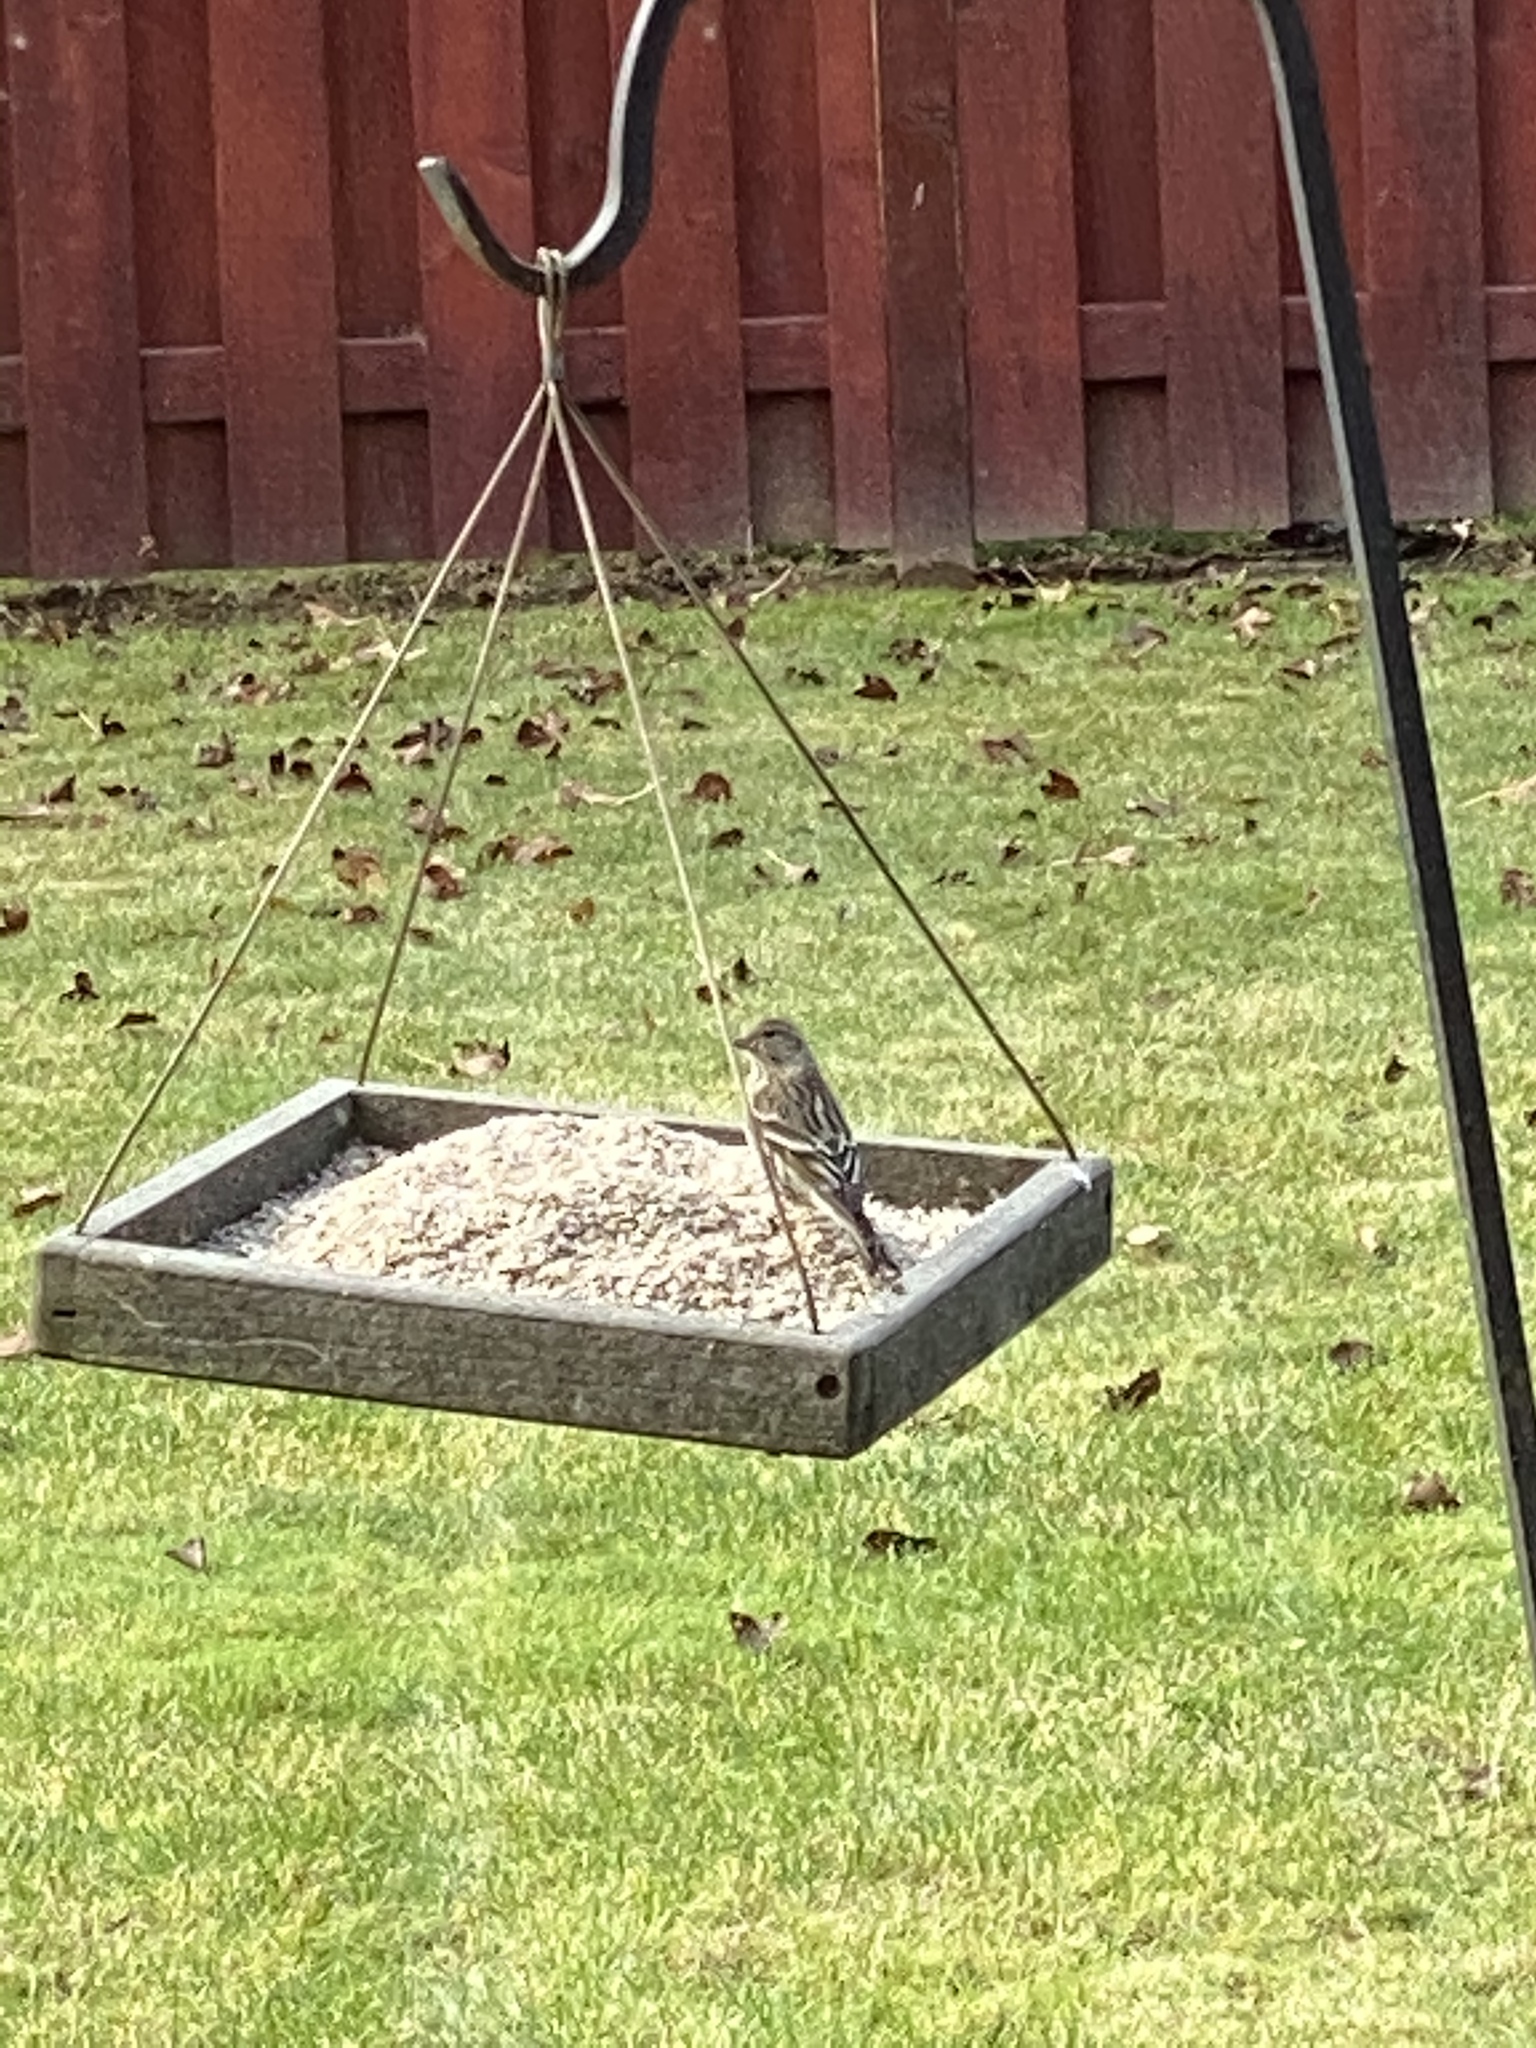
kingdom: Animalia
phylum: Chordata
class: Aves
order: Passeriformes
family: Fringillidae
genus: Spinus
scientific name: Spinus pinus
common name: Pine siskin
